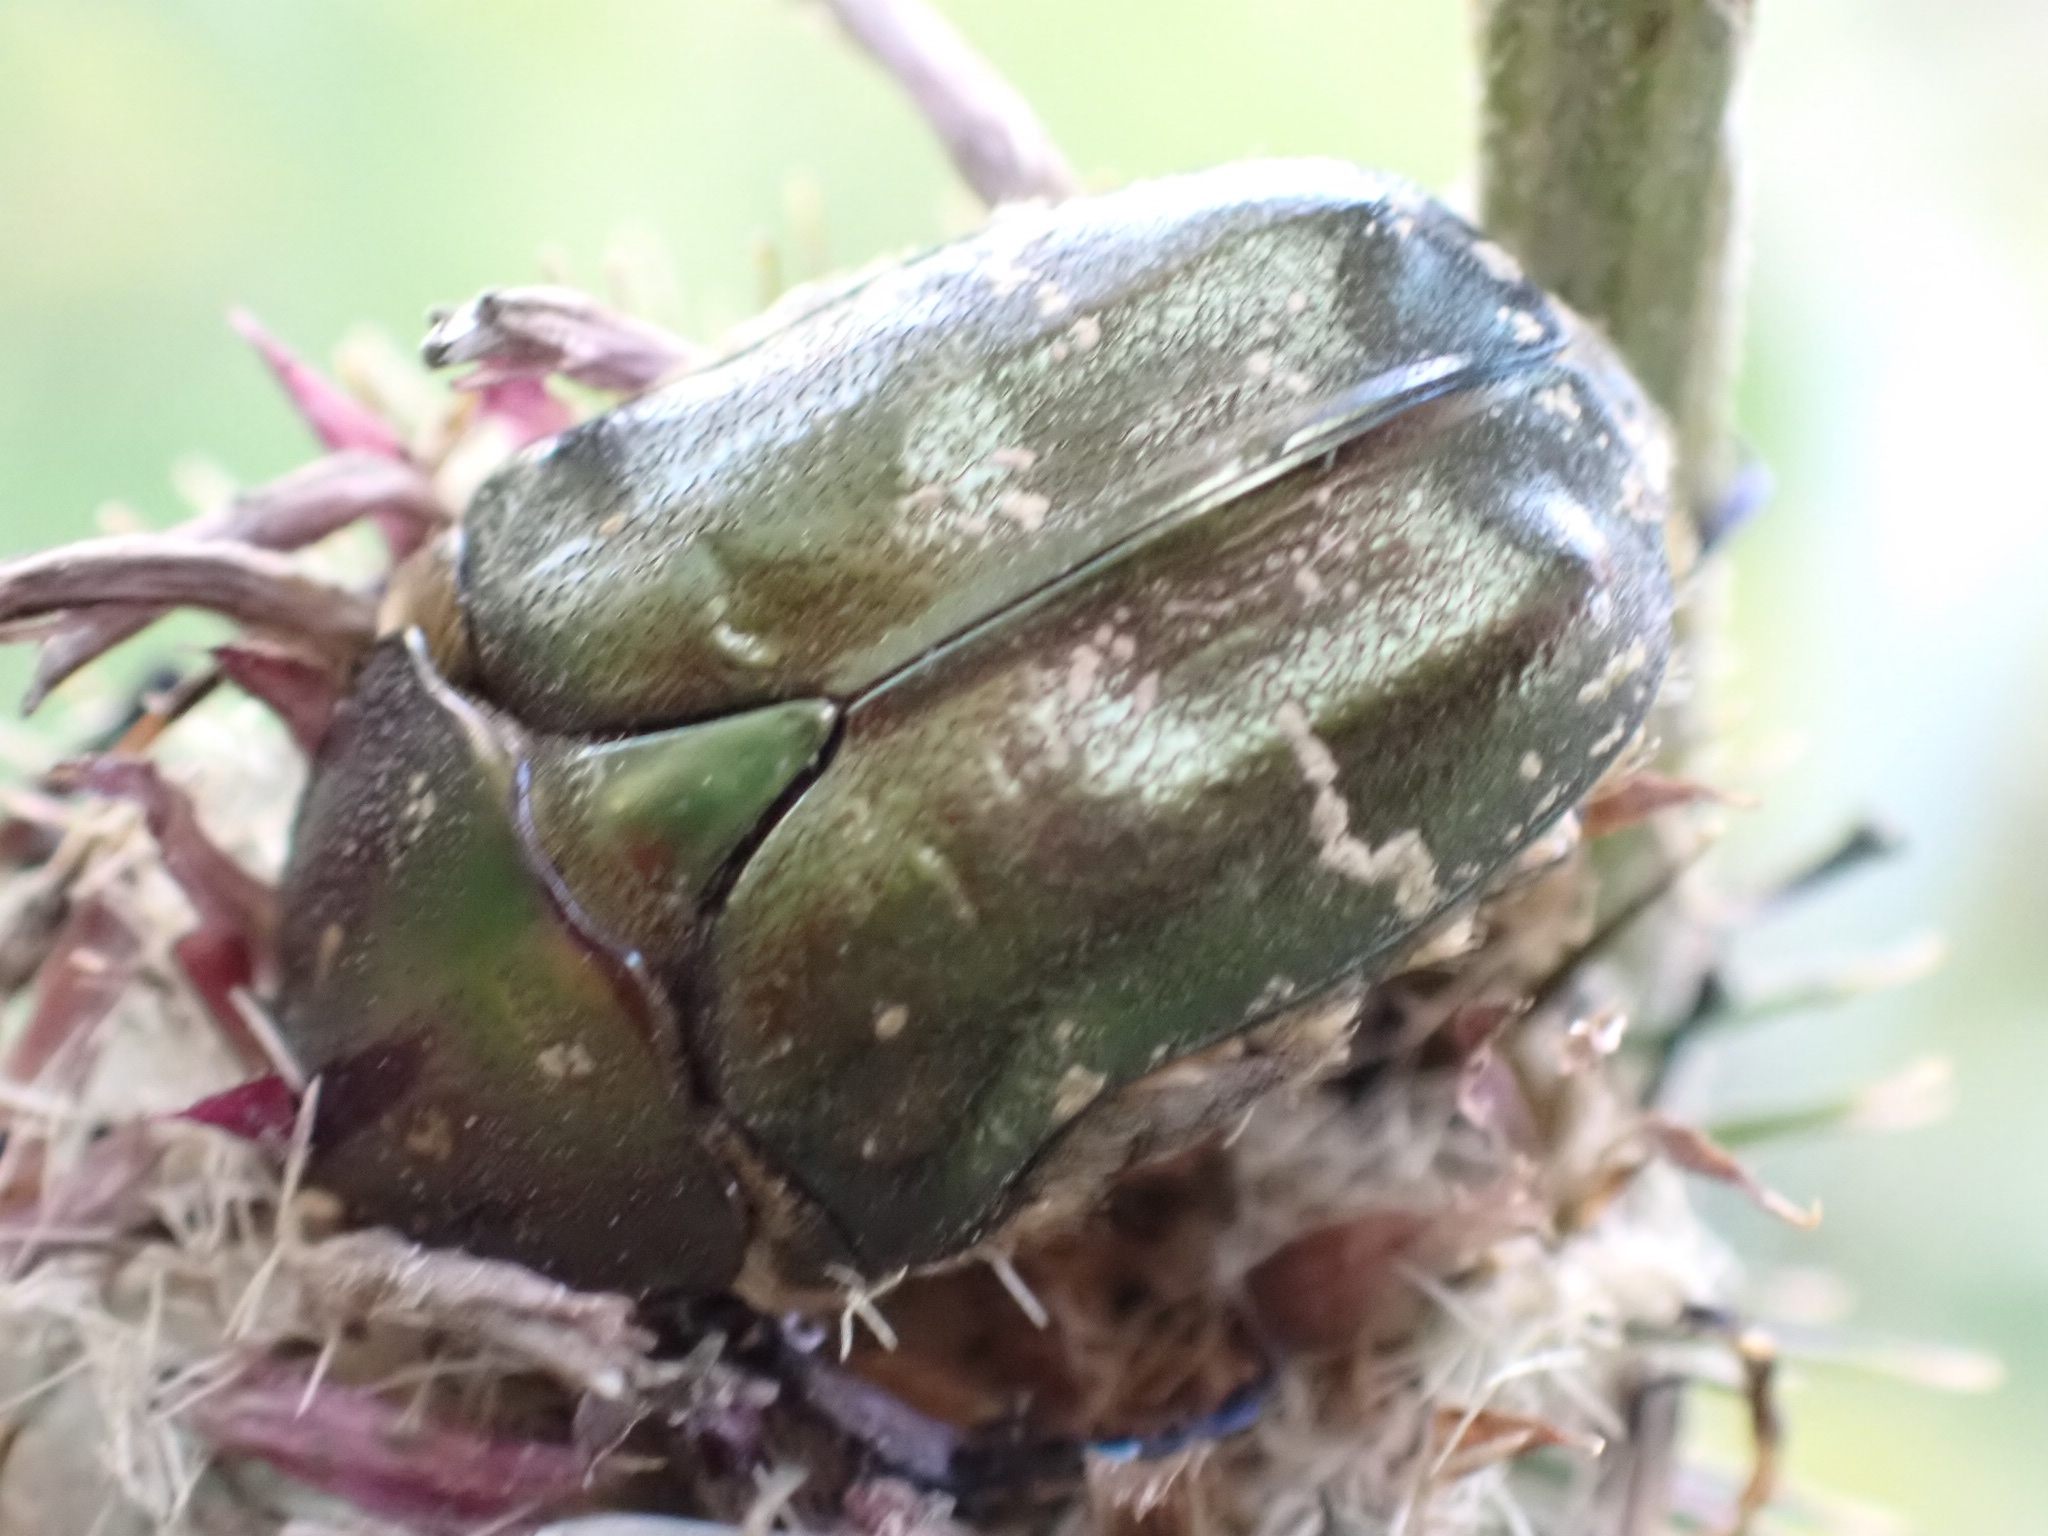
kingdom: Animalia
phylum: Arthropoda
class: Insecta
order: Coleoptera
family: Scarabaeidae
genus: Protaetia
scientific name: Protaetia cuprea
